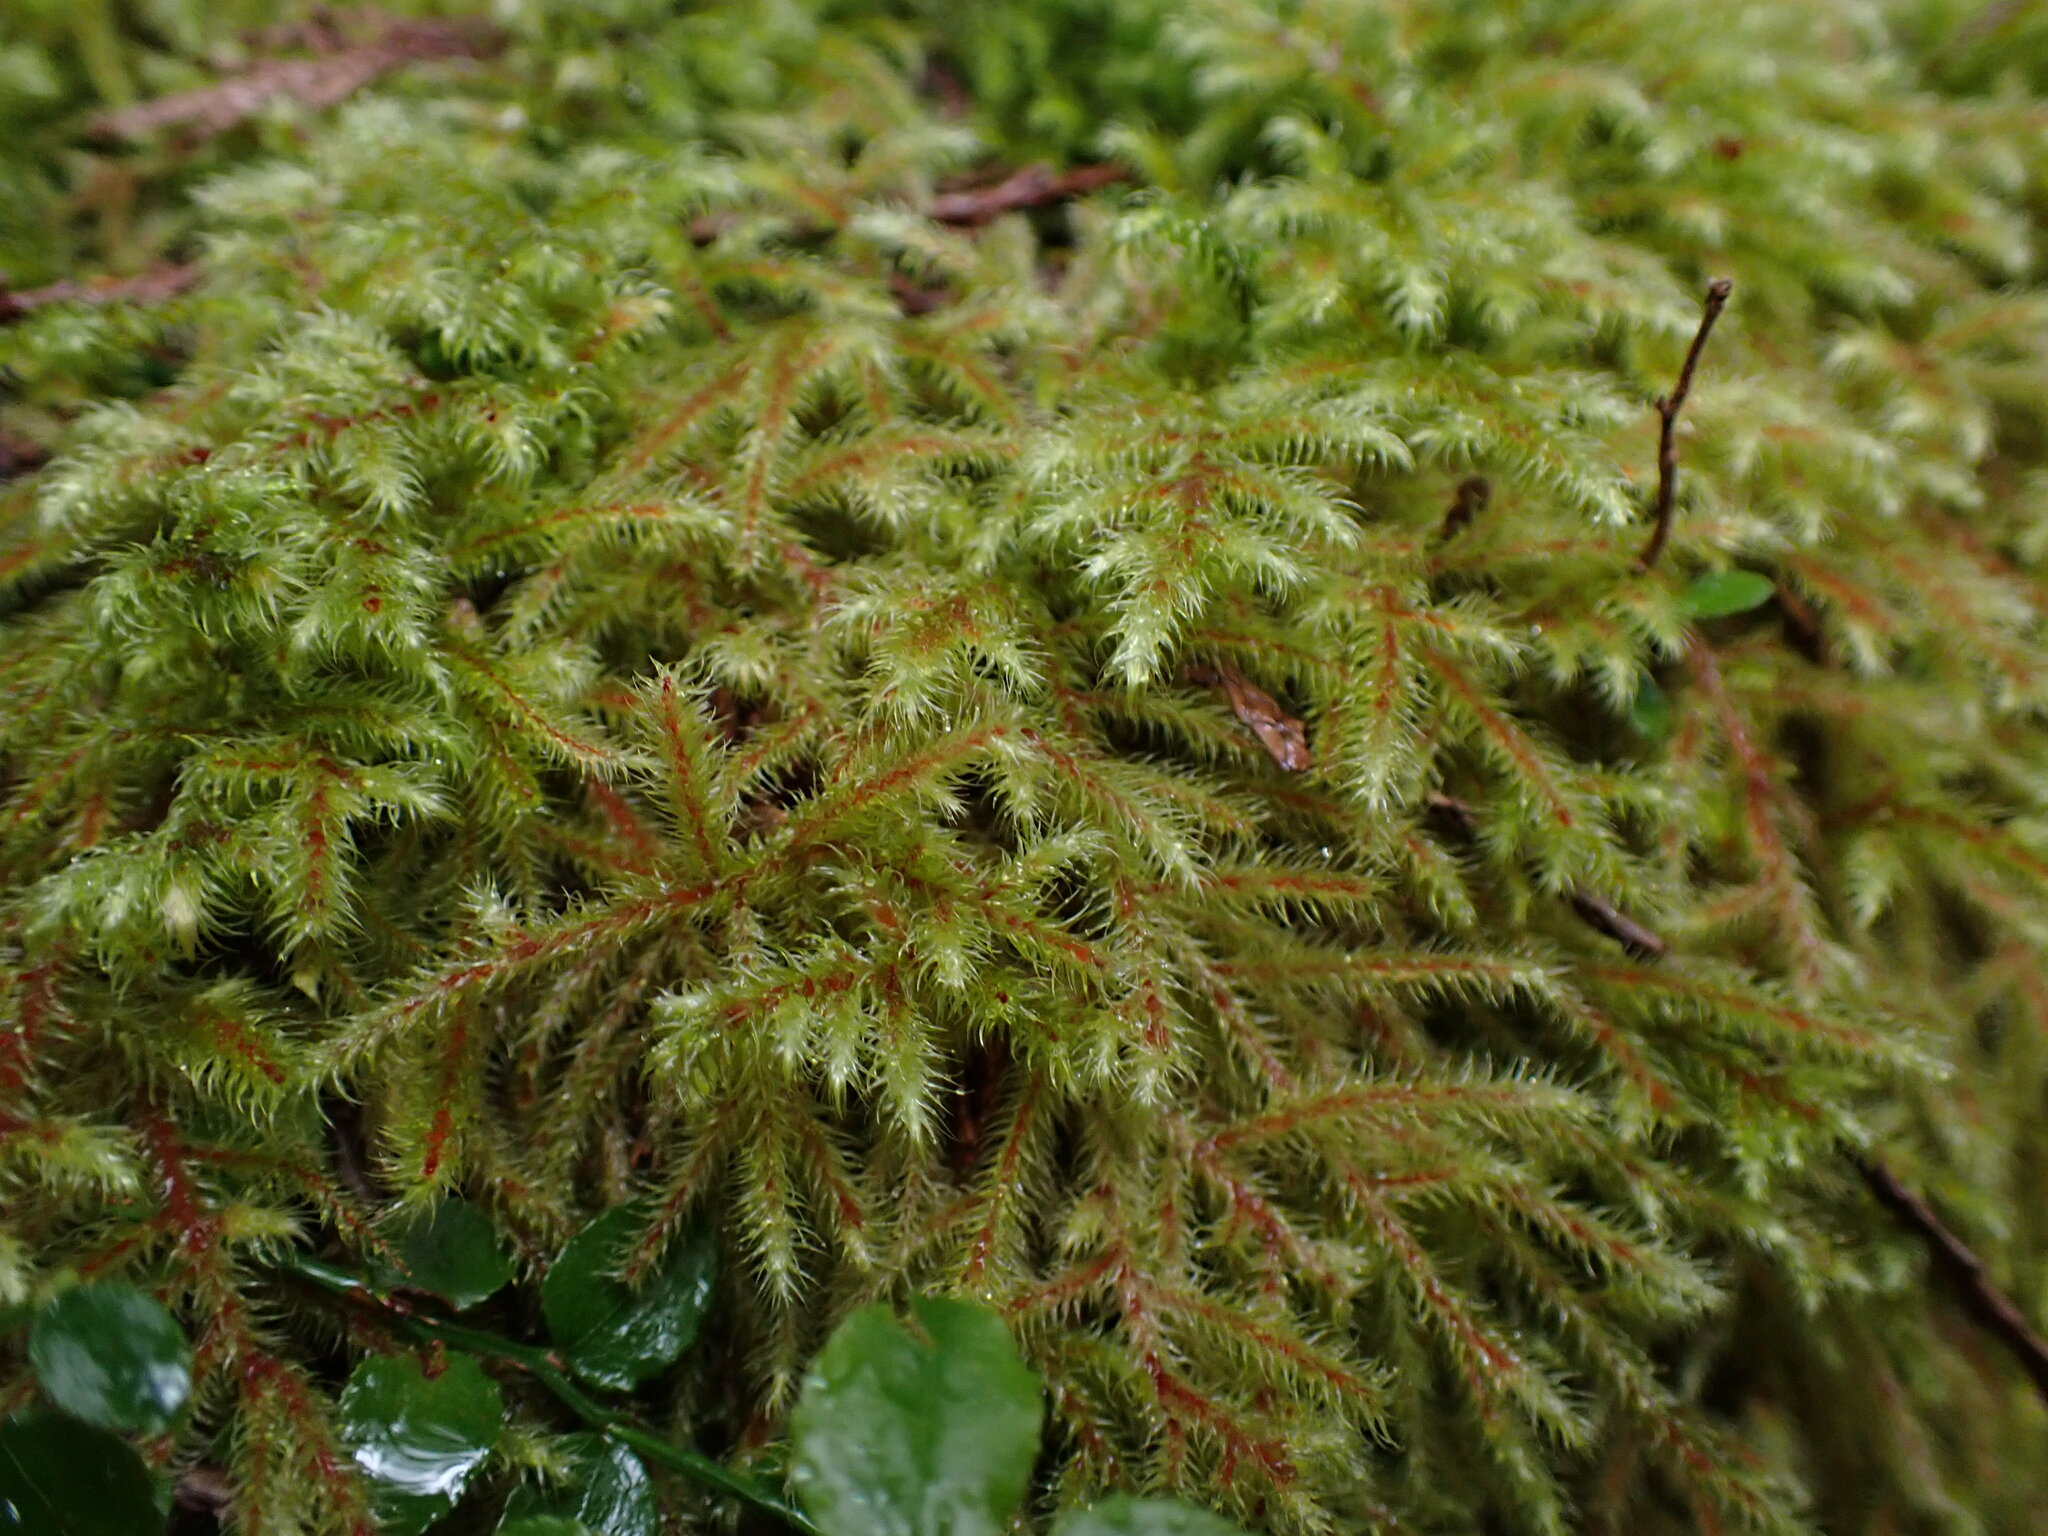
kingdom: Plantae
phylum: Bryophyta
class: Bryopsida
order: Hypnales
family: Hylocomiaceae
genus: Rhytidiadelphus
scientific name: Rhytidiadelphus loreus
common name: Lanky moss
